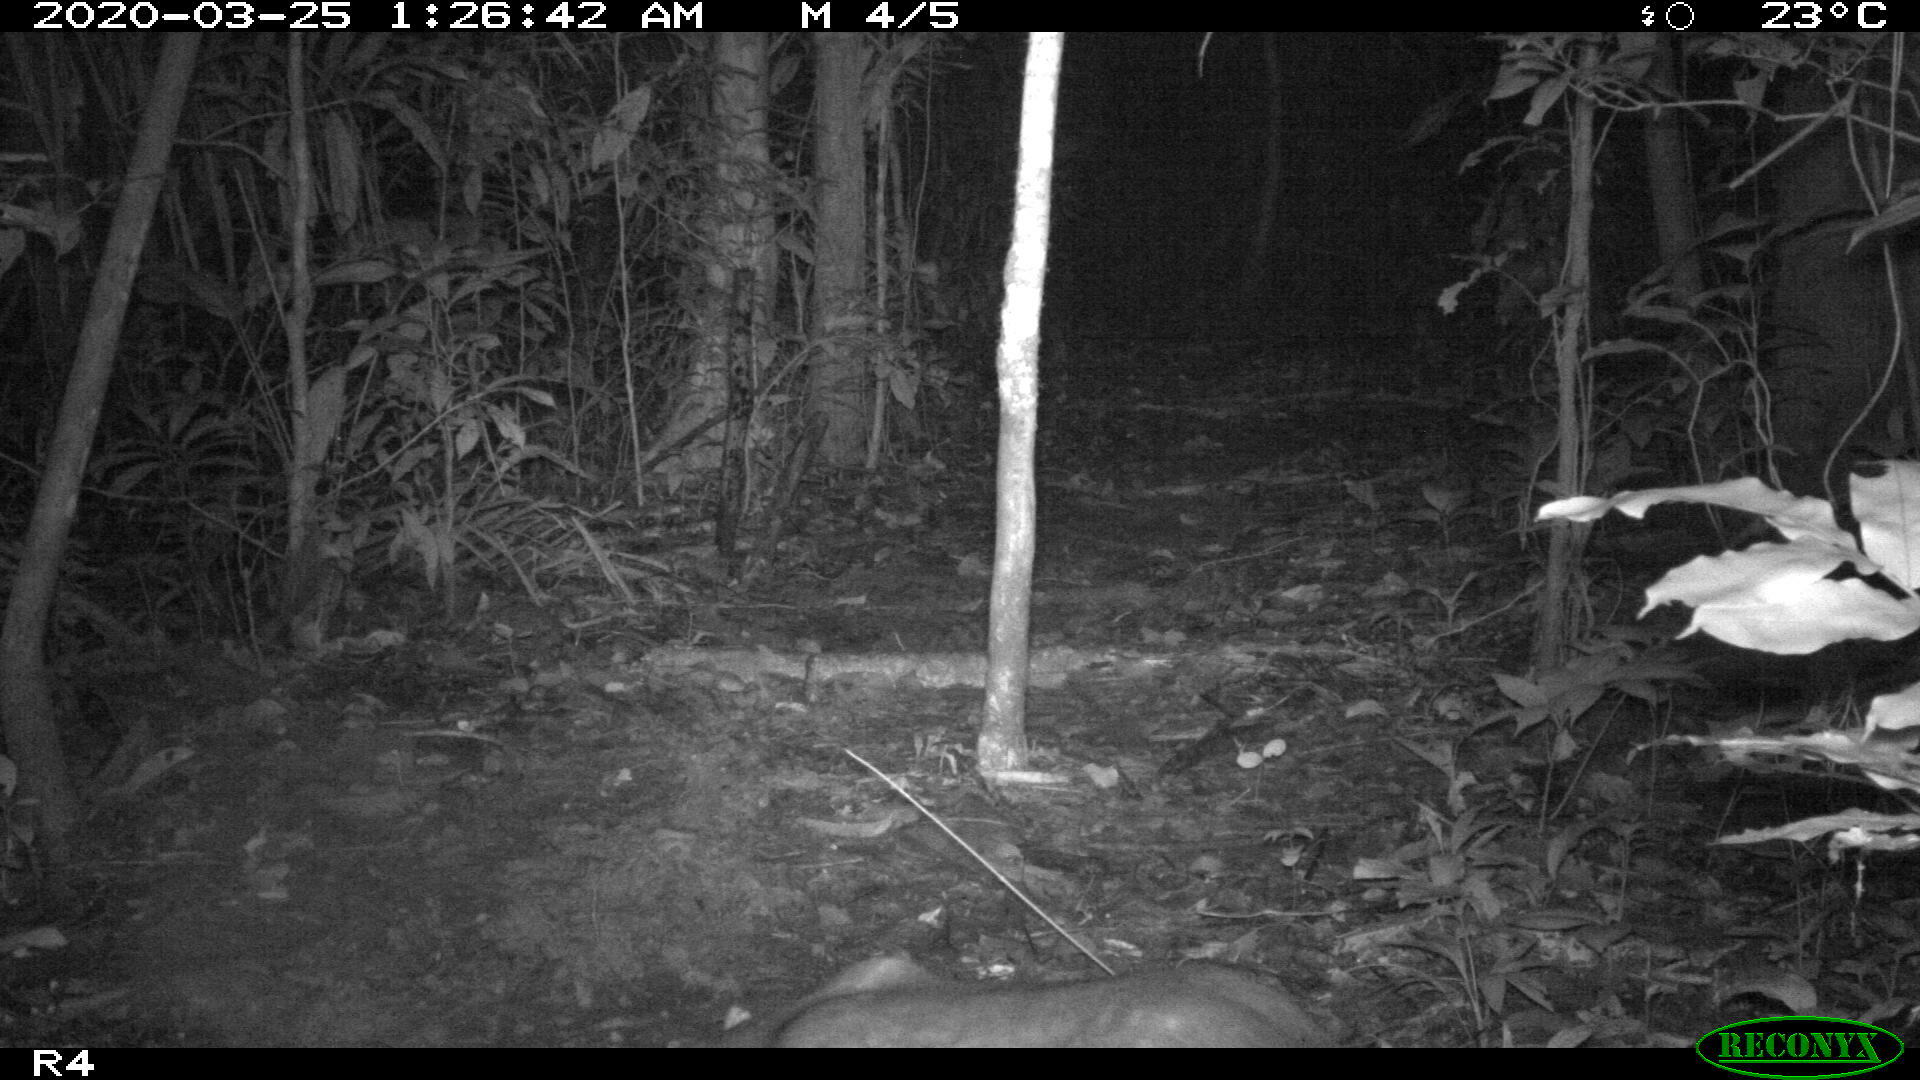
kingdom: Animalia
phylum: Chordata
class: Mammalia
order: Rodentia
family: Cuniculidae
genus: Cuniculus
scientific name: Cuniculus paca
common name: Lowland paca
